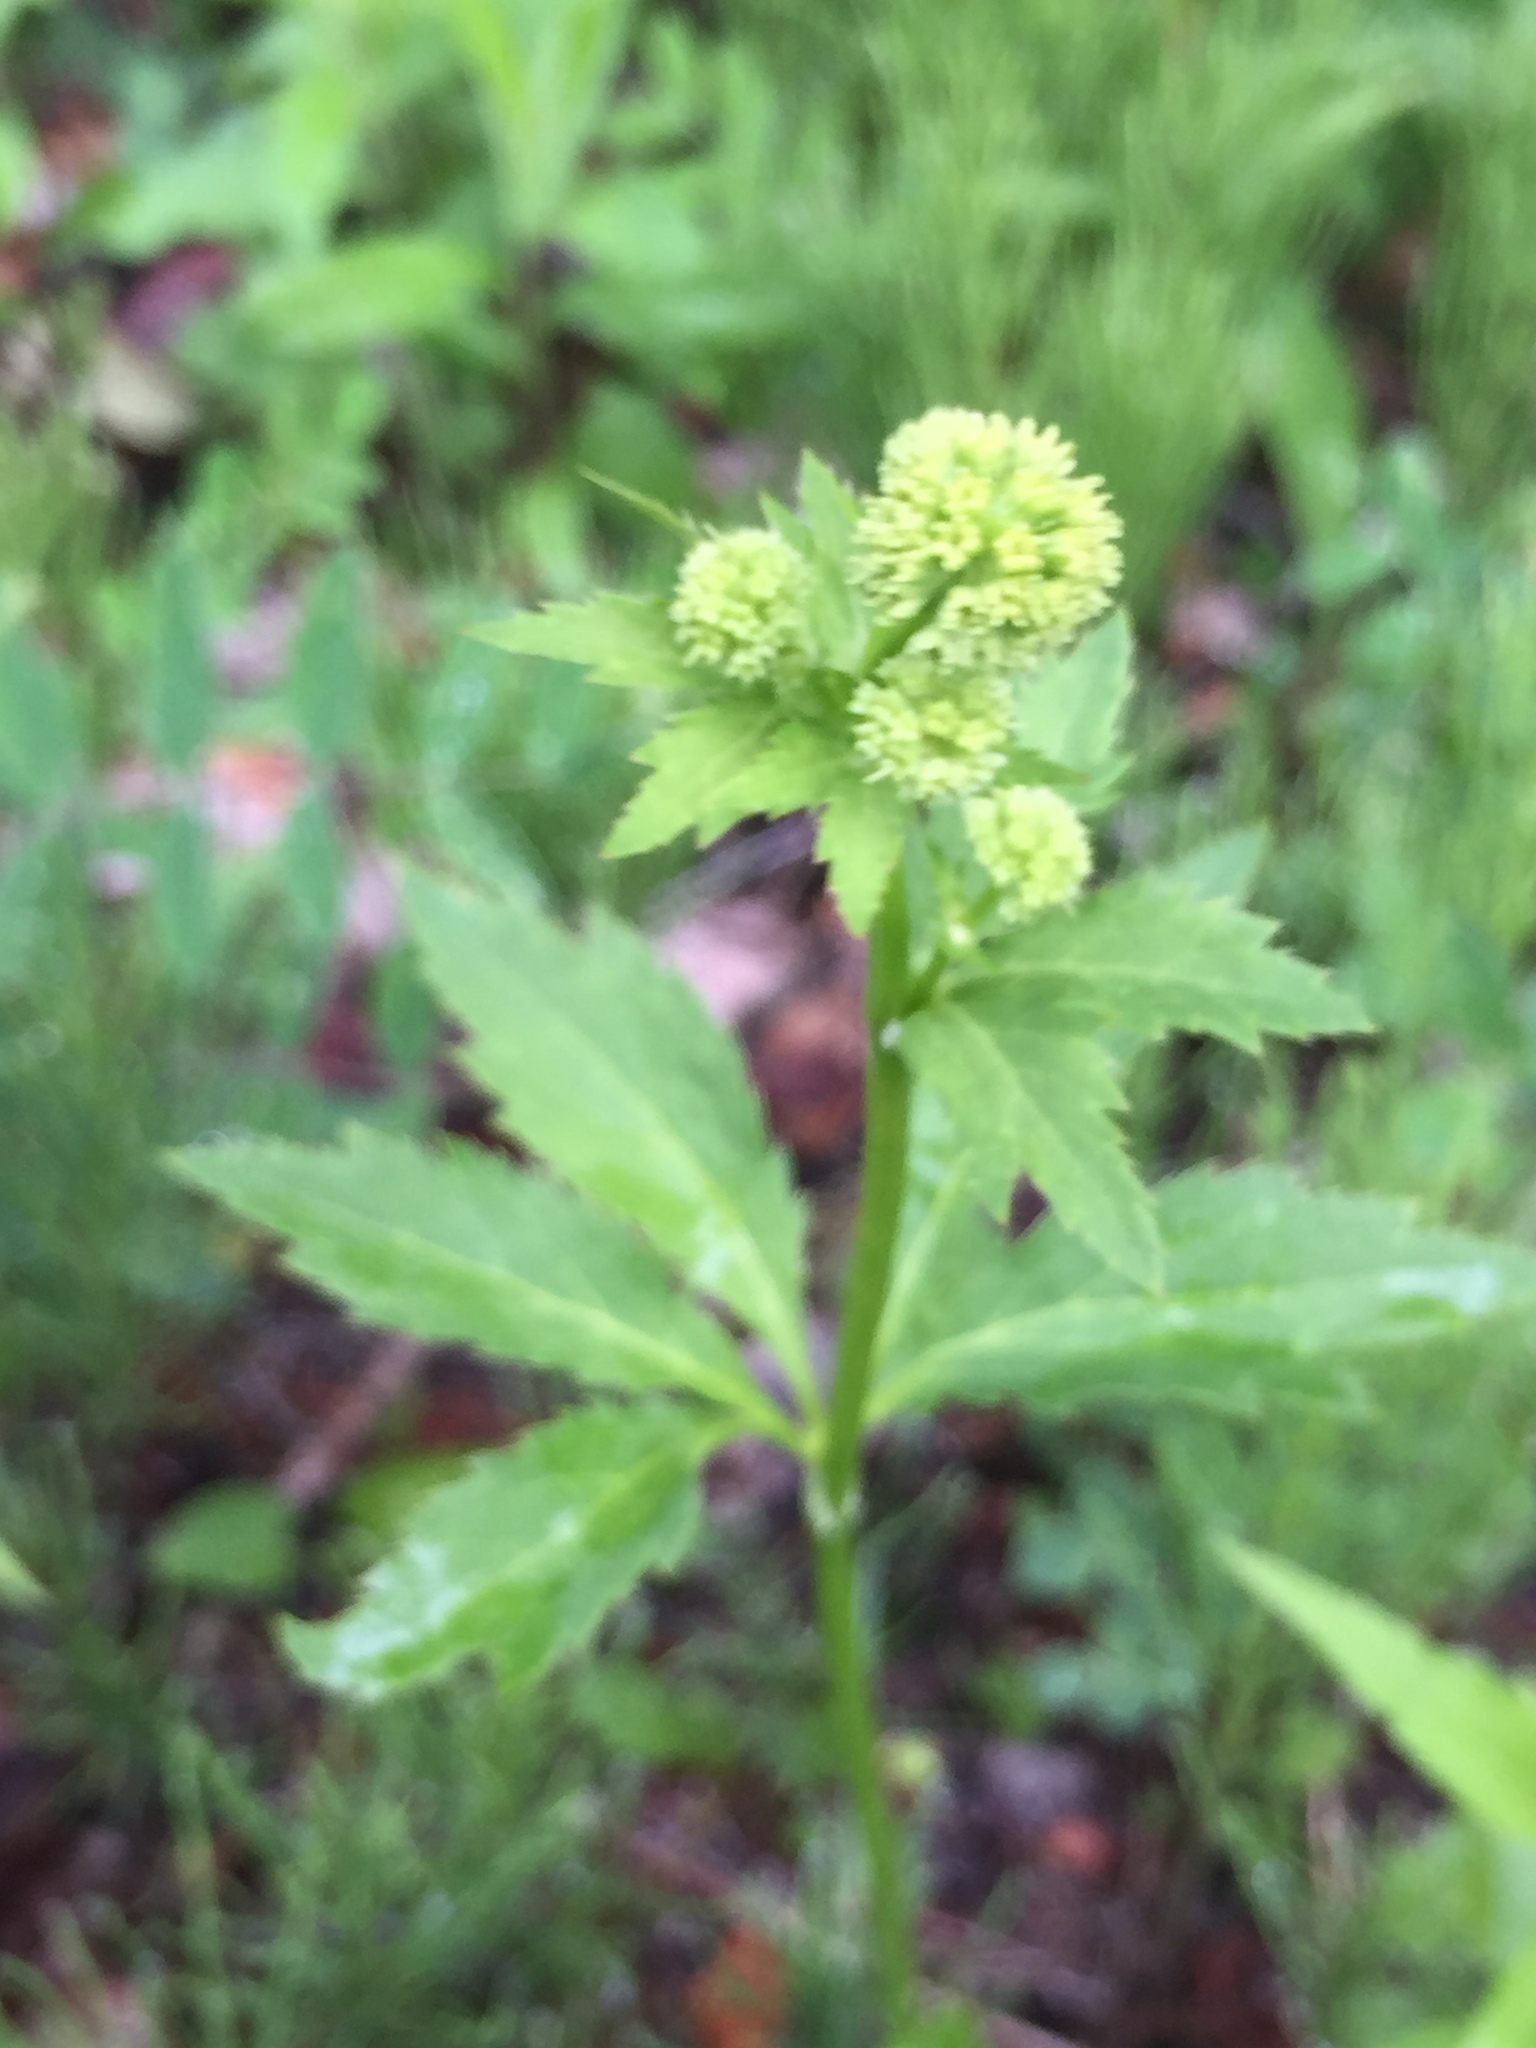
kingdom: Plantae
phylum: Tracheophyta
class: Magnoliopsida
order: Apiales
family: Apiaceae
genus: Sanicula
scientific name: Sanicula marilandica
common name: Black snakeroot
